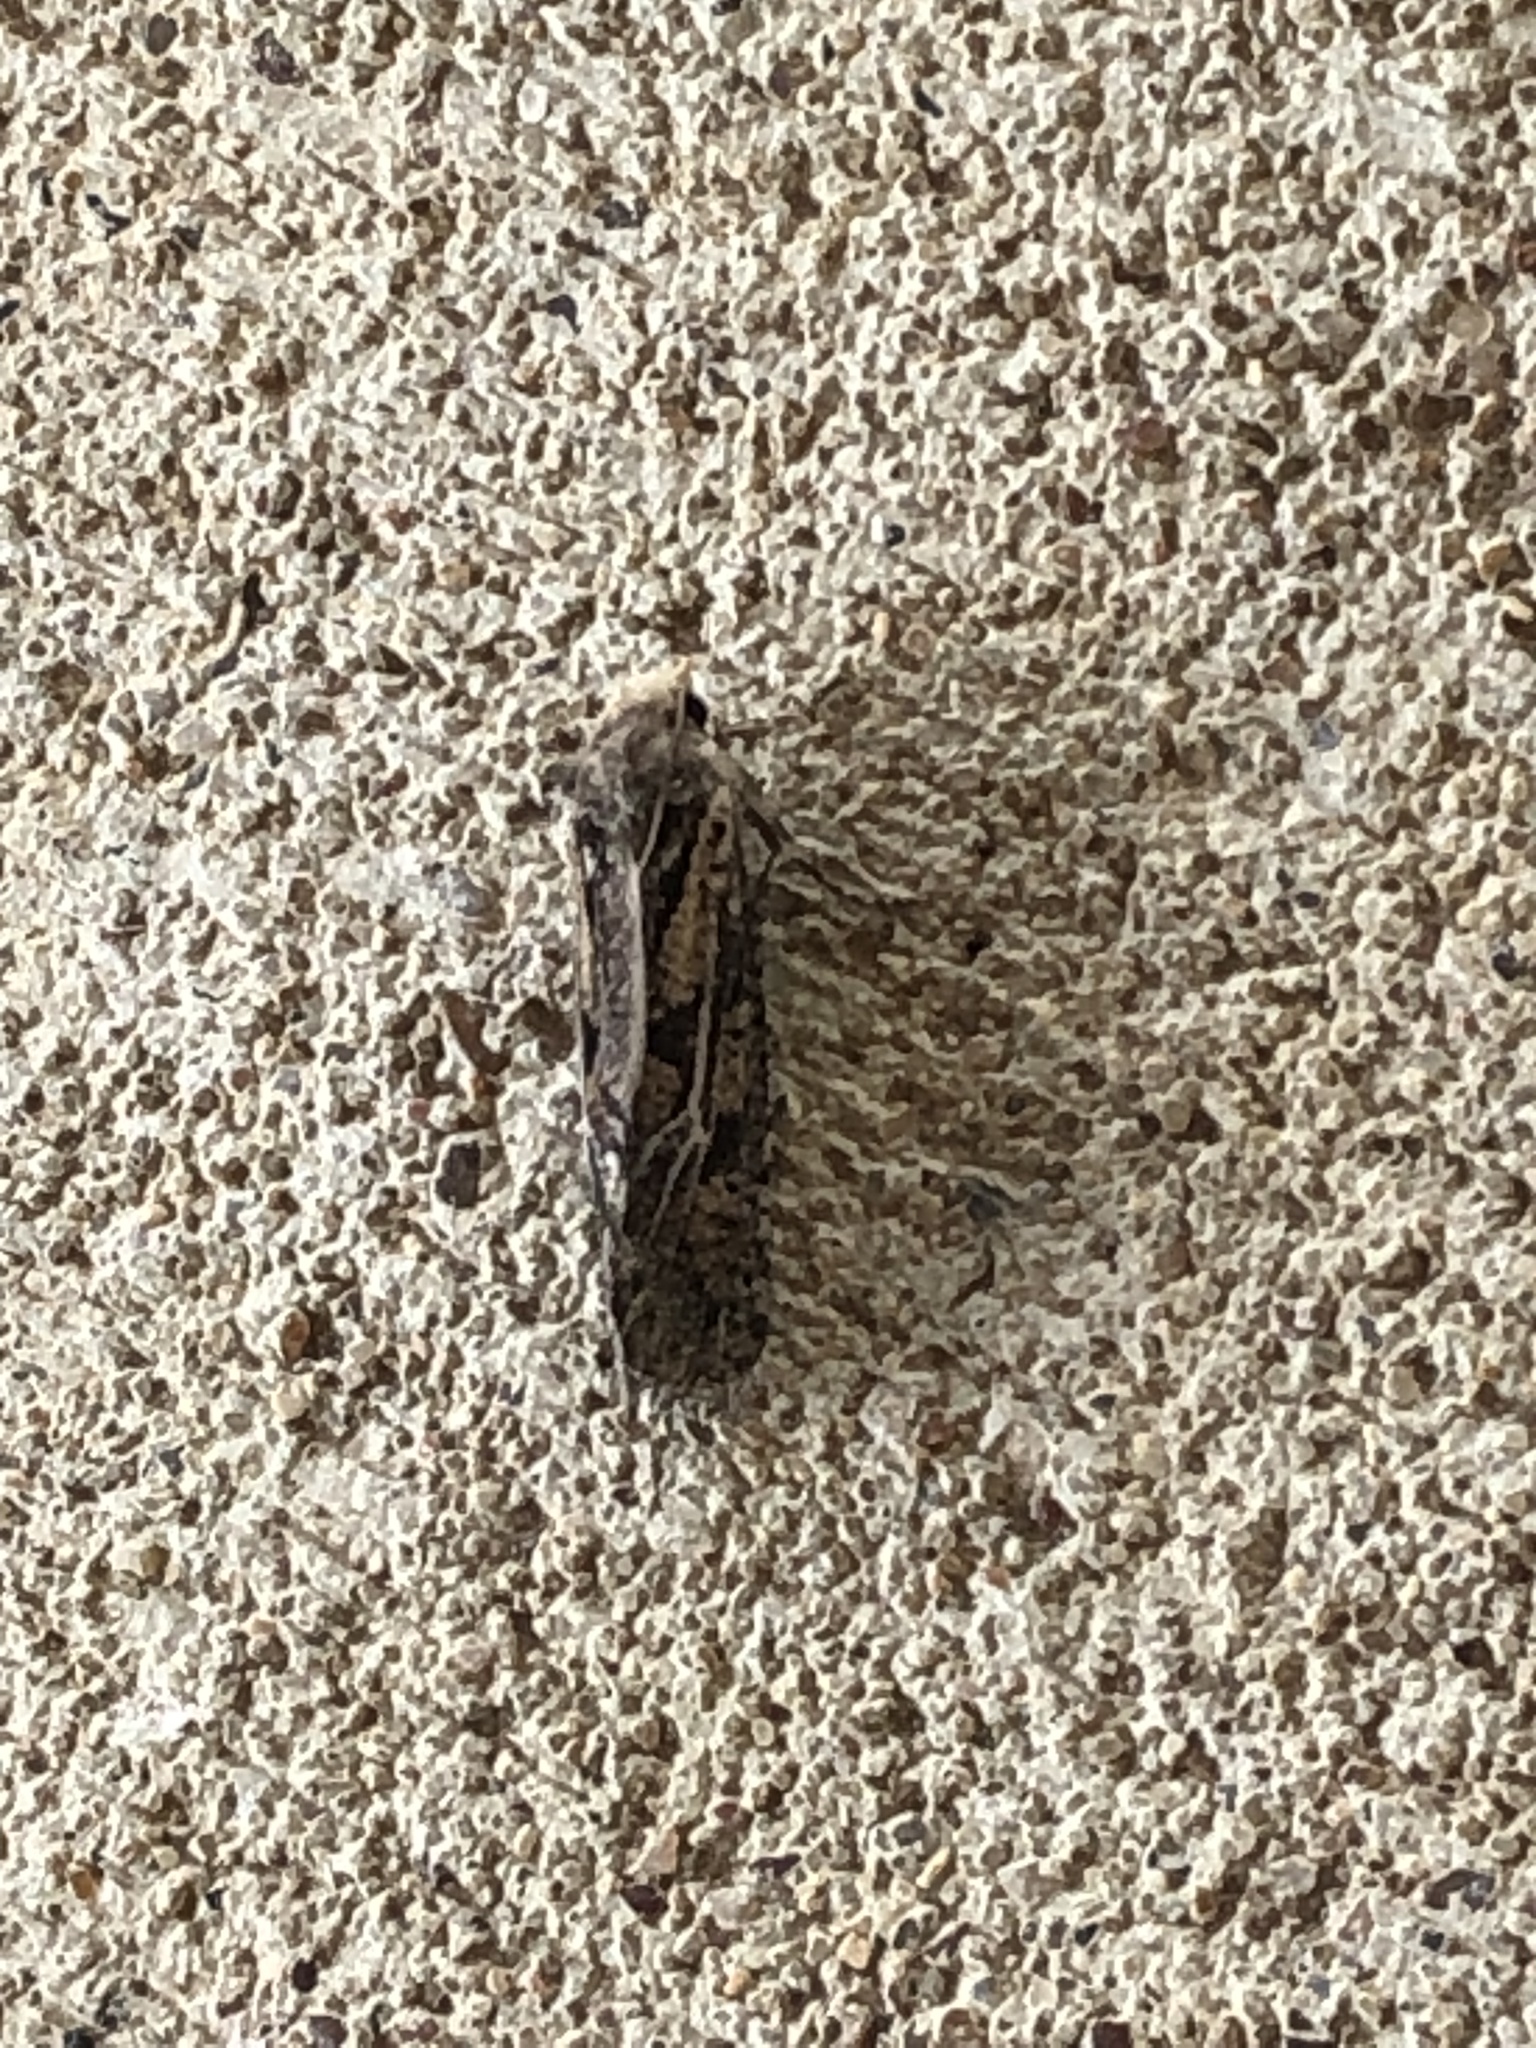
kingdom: Animalia
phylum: Arthropoda
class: Insecta
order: Lepidoptera
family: Tineidae
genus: Acrolophus
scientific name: Acrolophus popeanella
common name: Clemens' grass tubeworm moth
